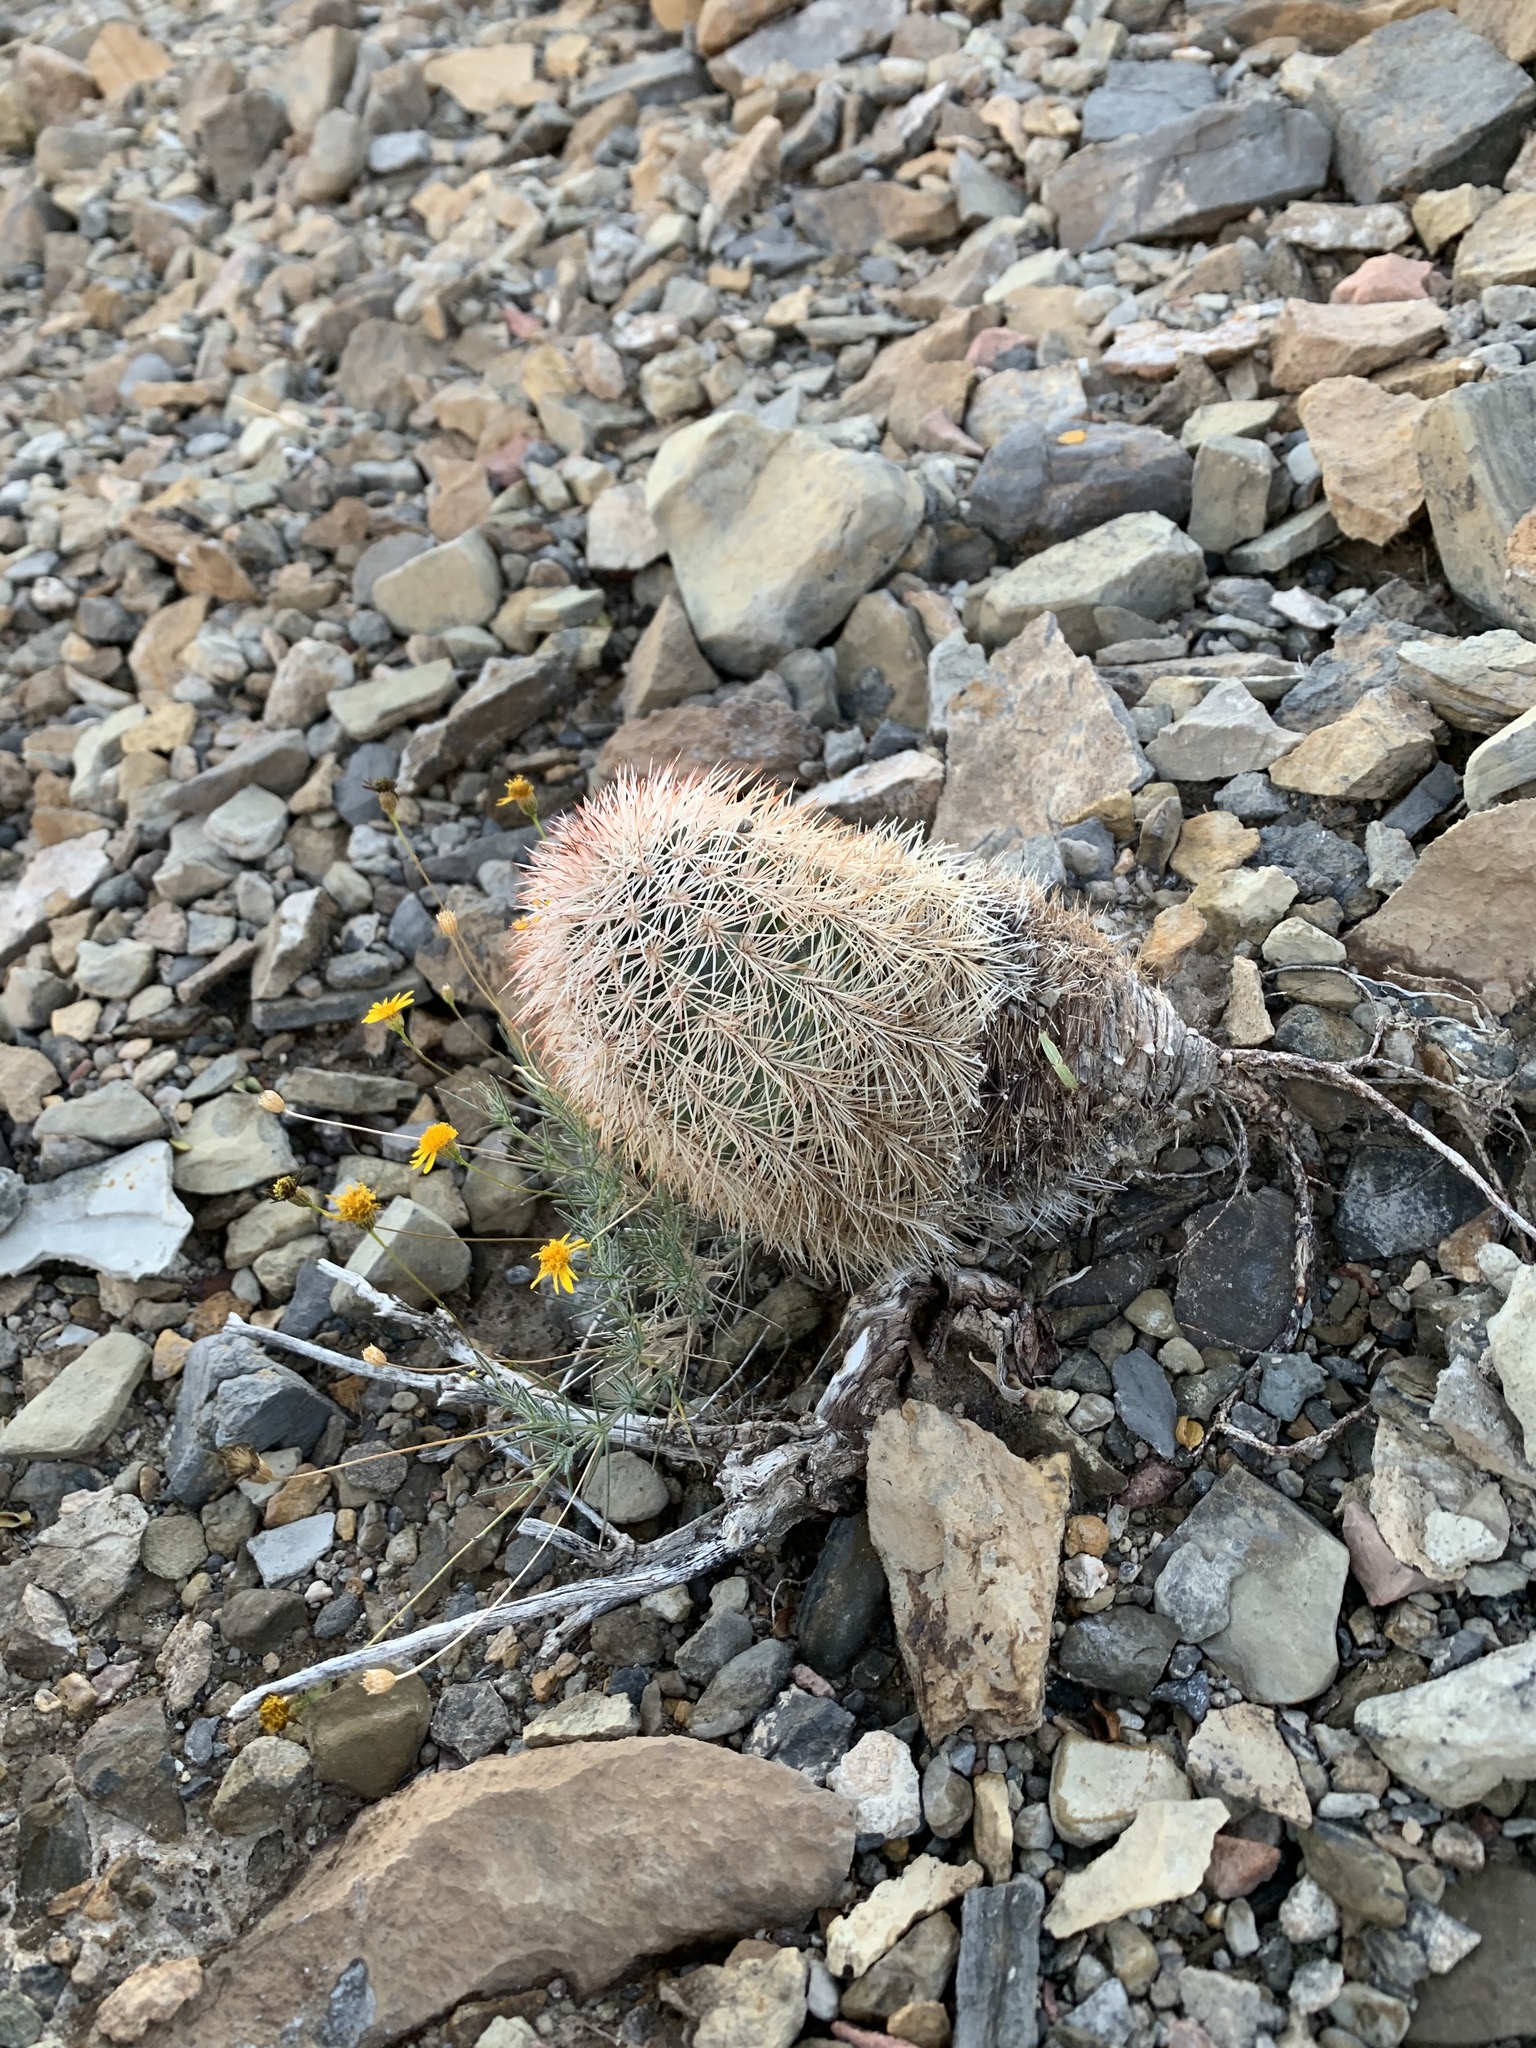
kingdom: Plantae
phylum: Tracheophyta
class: Magnoliopsida
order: Caryophyllales
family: Cactaceae
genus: Echinocereus
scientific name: Echinocereus dasyacanthus
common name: Spiny hedgehog cactus
